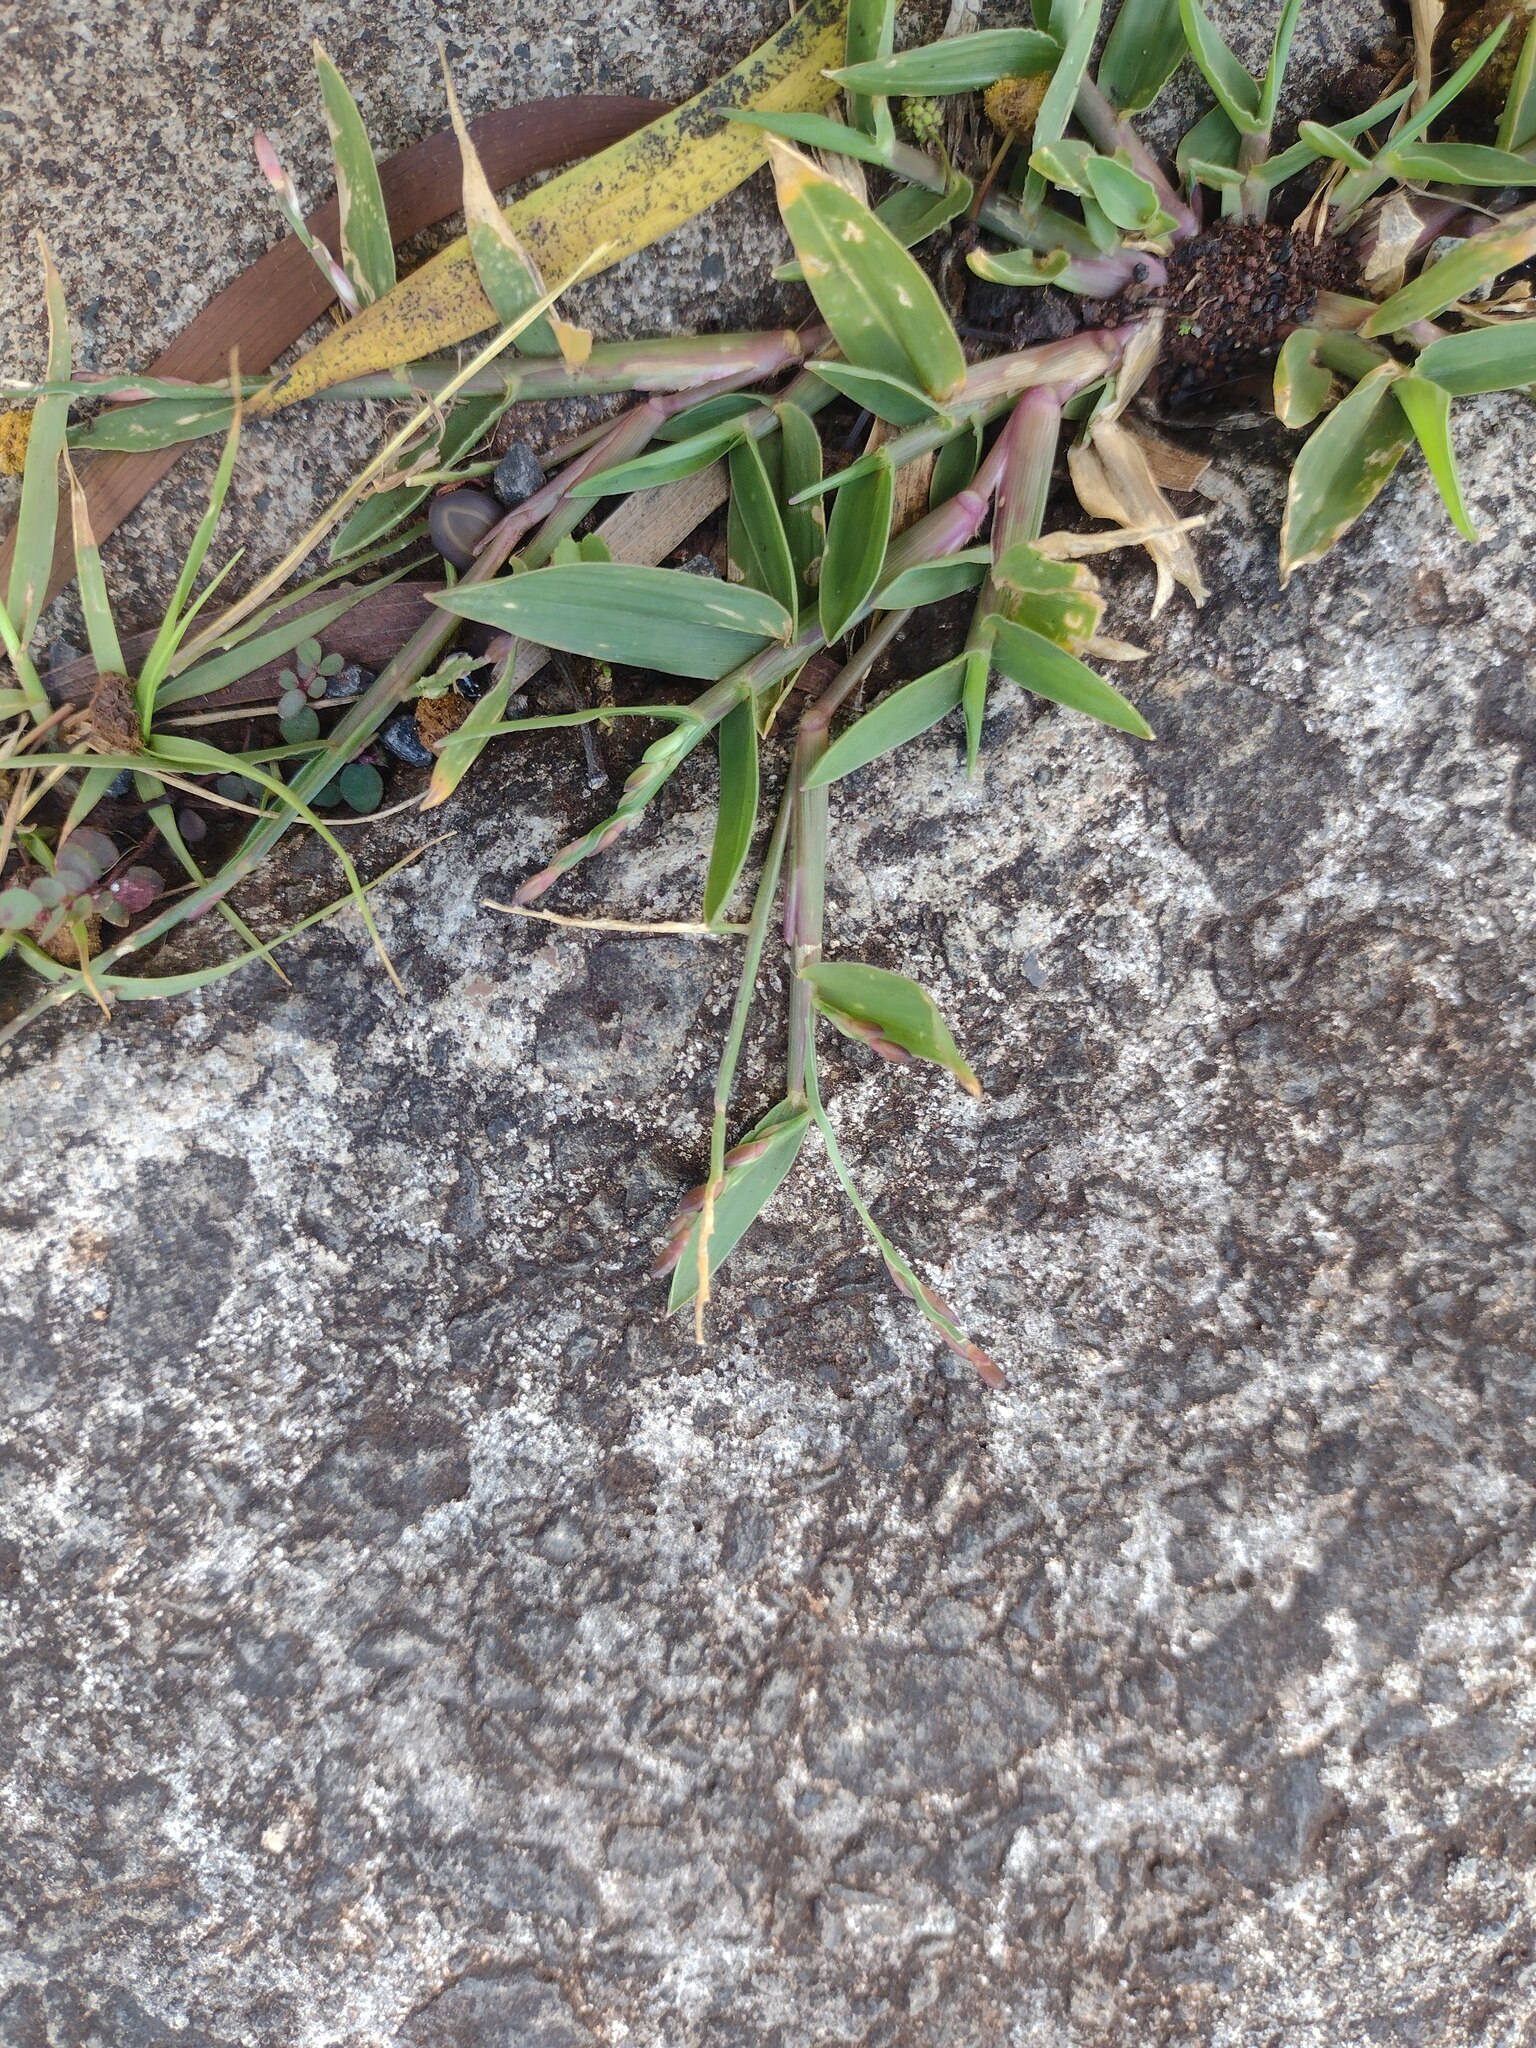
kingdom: Plantae
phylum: Tracheophyta
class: Liliopsida
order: Poales
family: Poaceae
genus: Urochloa
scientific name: Urochloa distachyos
